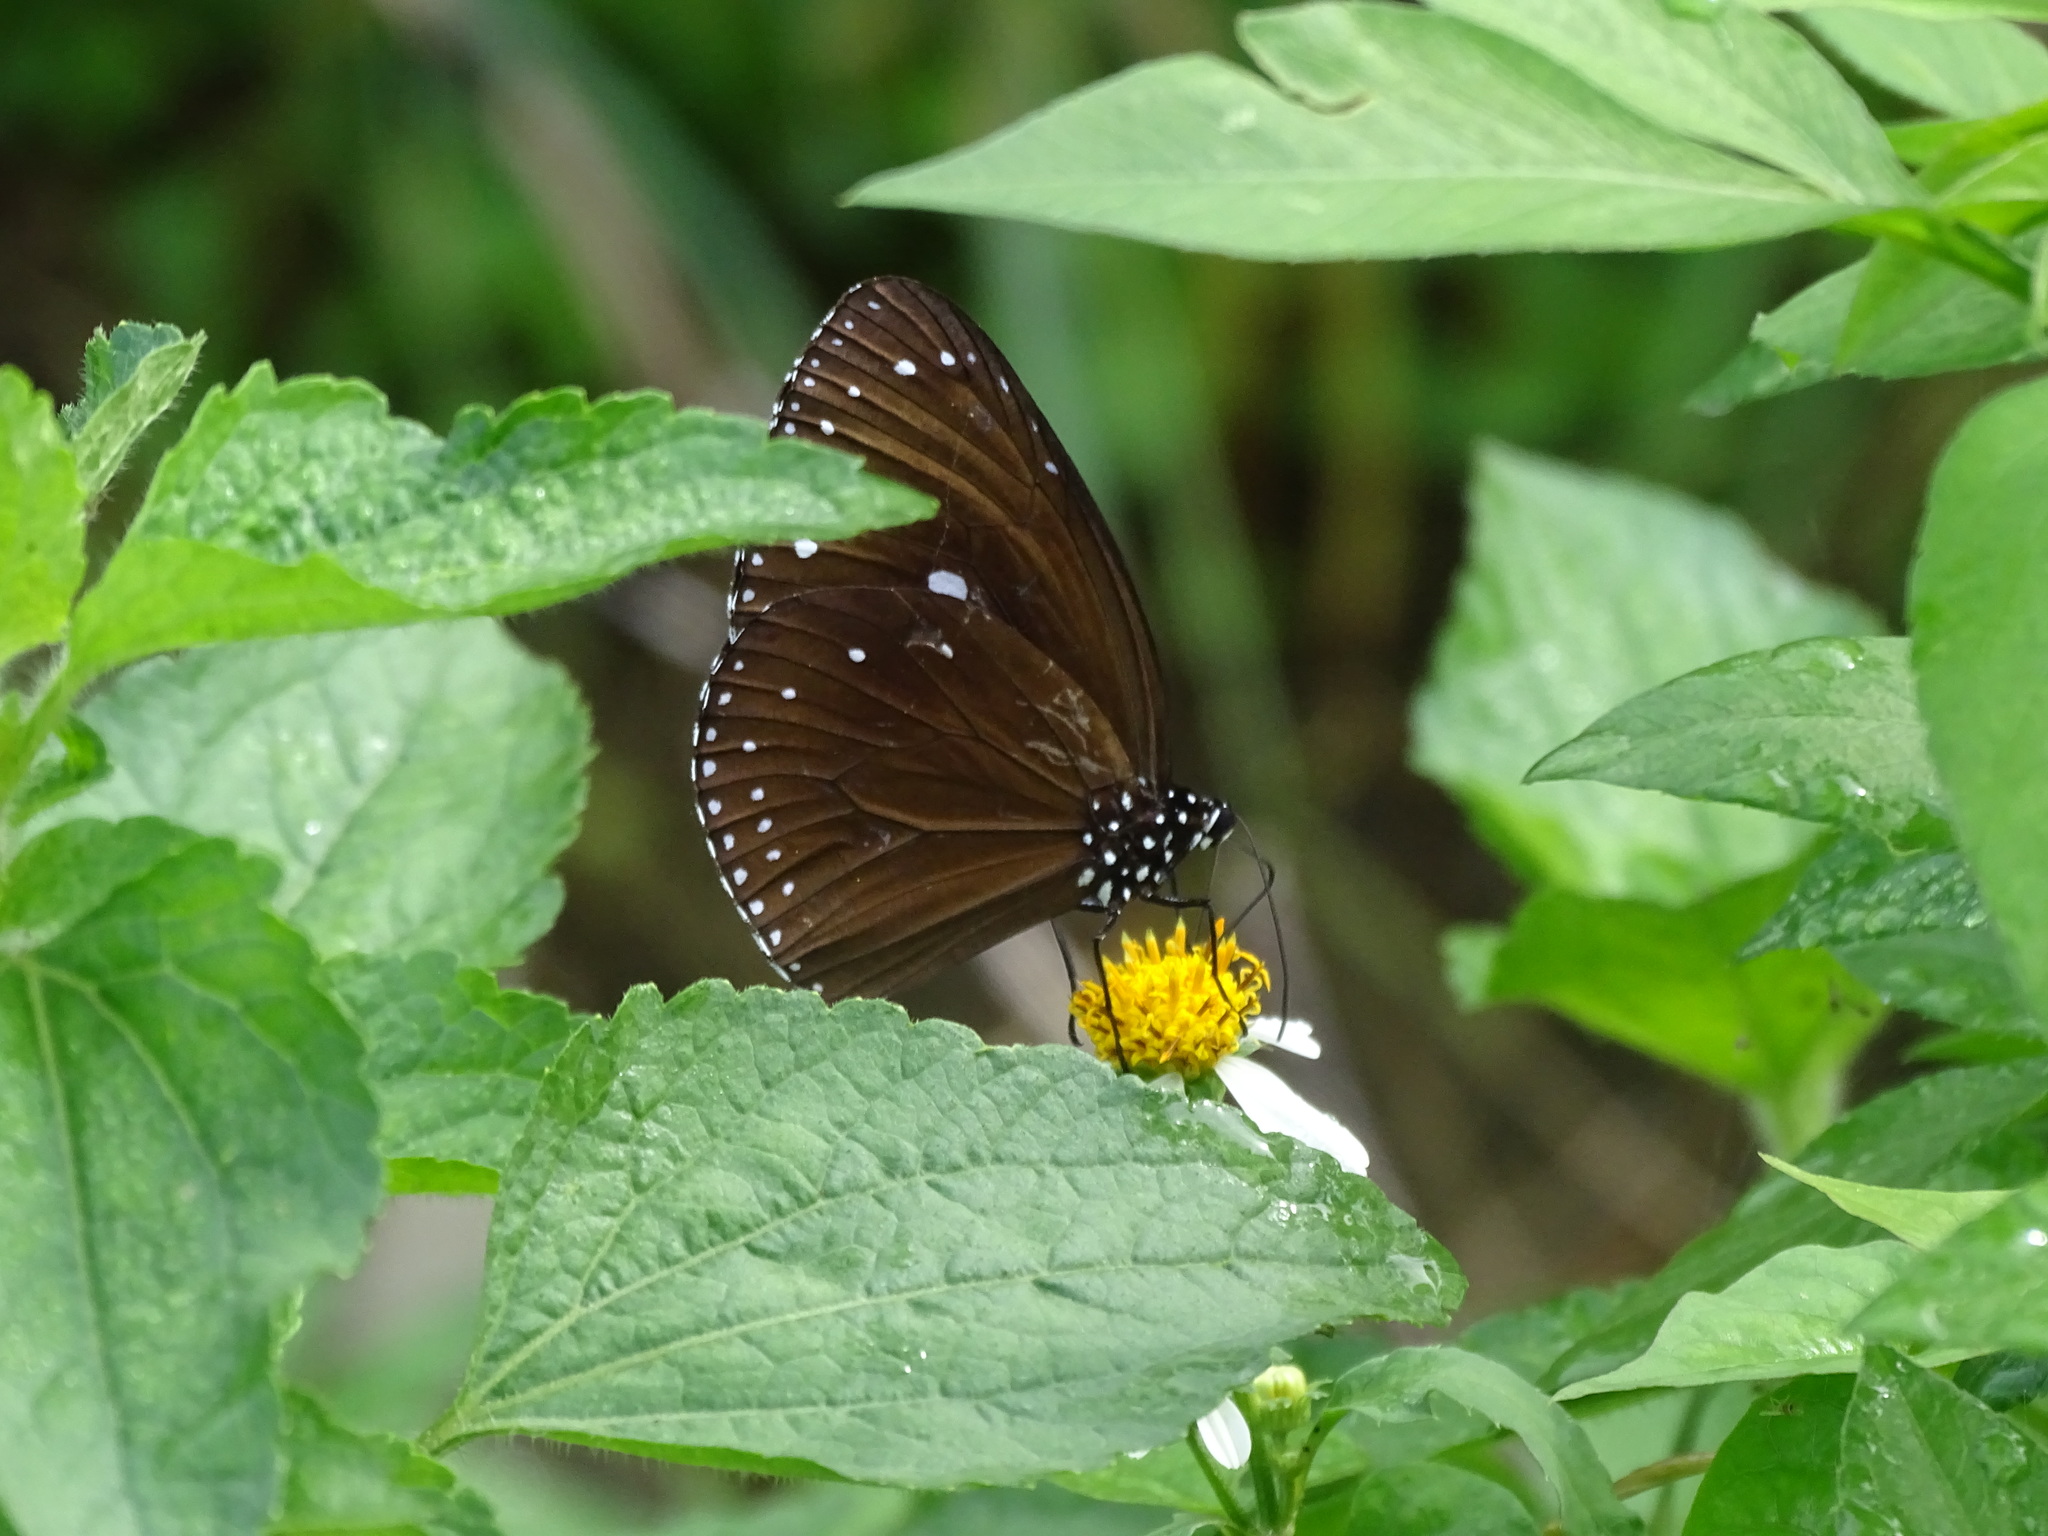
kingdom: Animalia
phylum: Arthropoda
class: Insecta
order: Lepidoptera
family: Nymphalidae
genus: Euploea
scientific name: Euploea tulliolus
